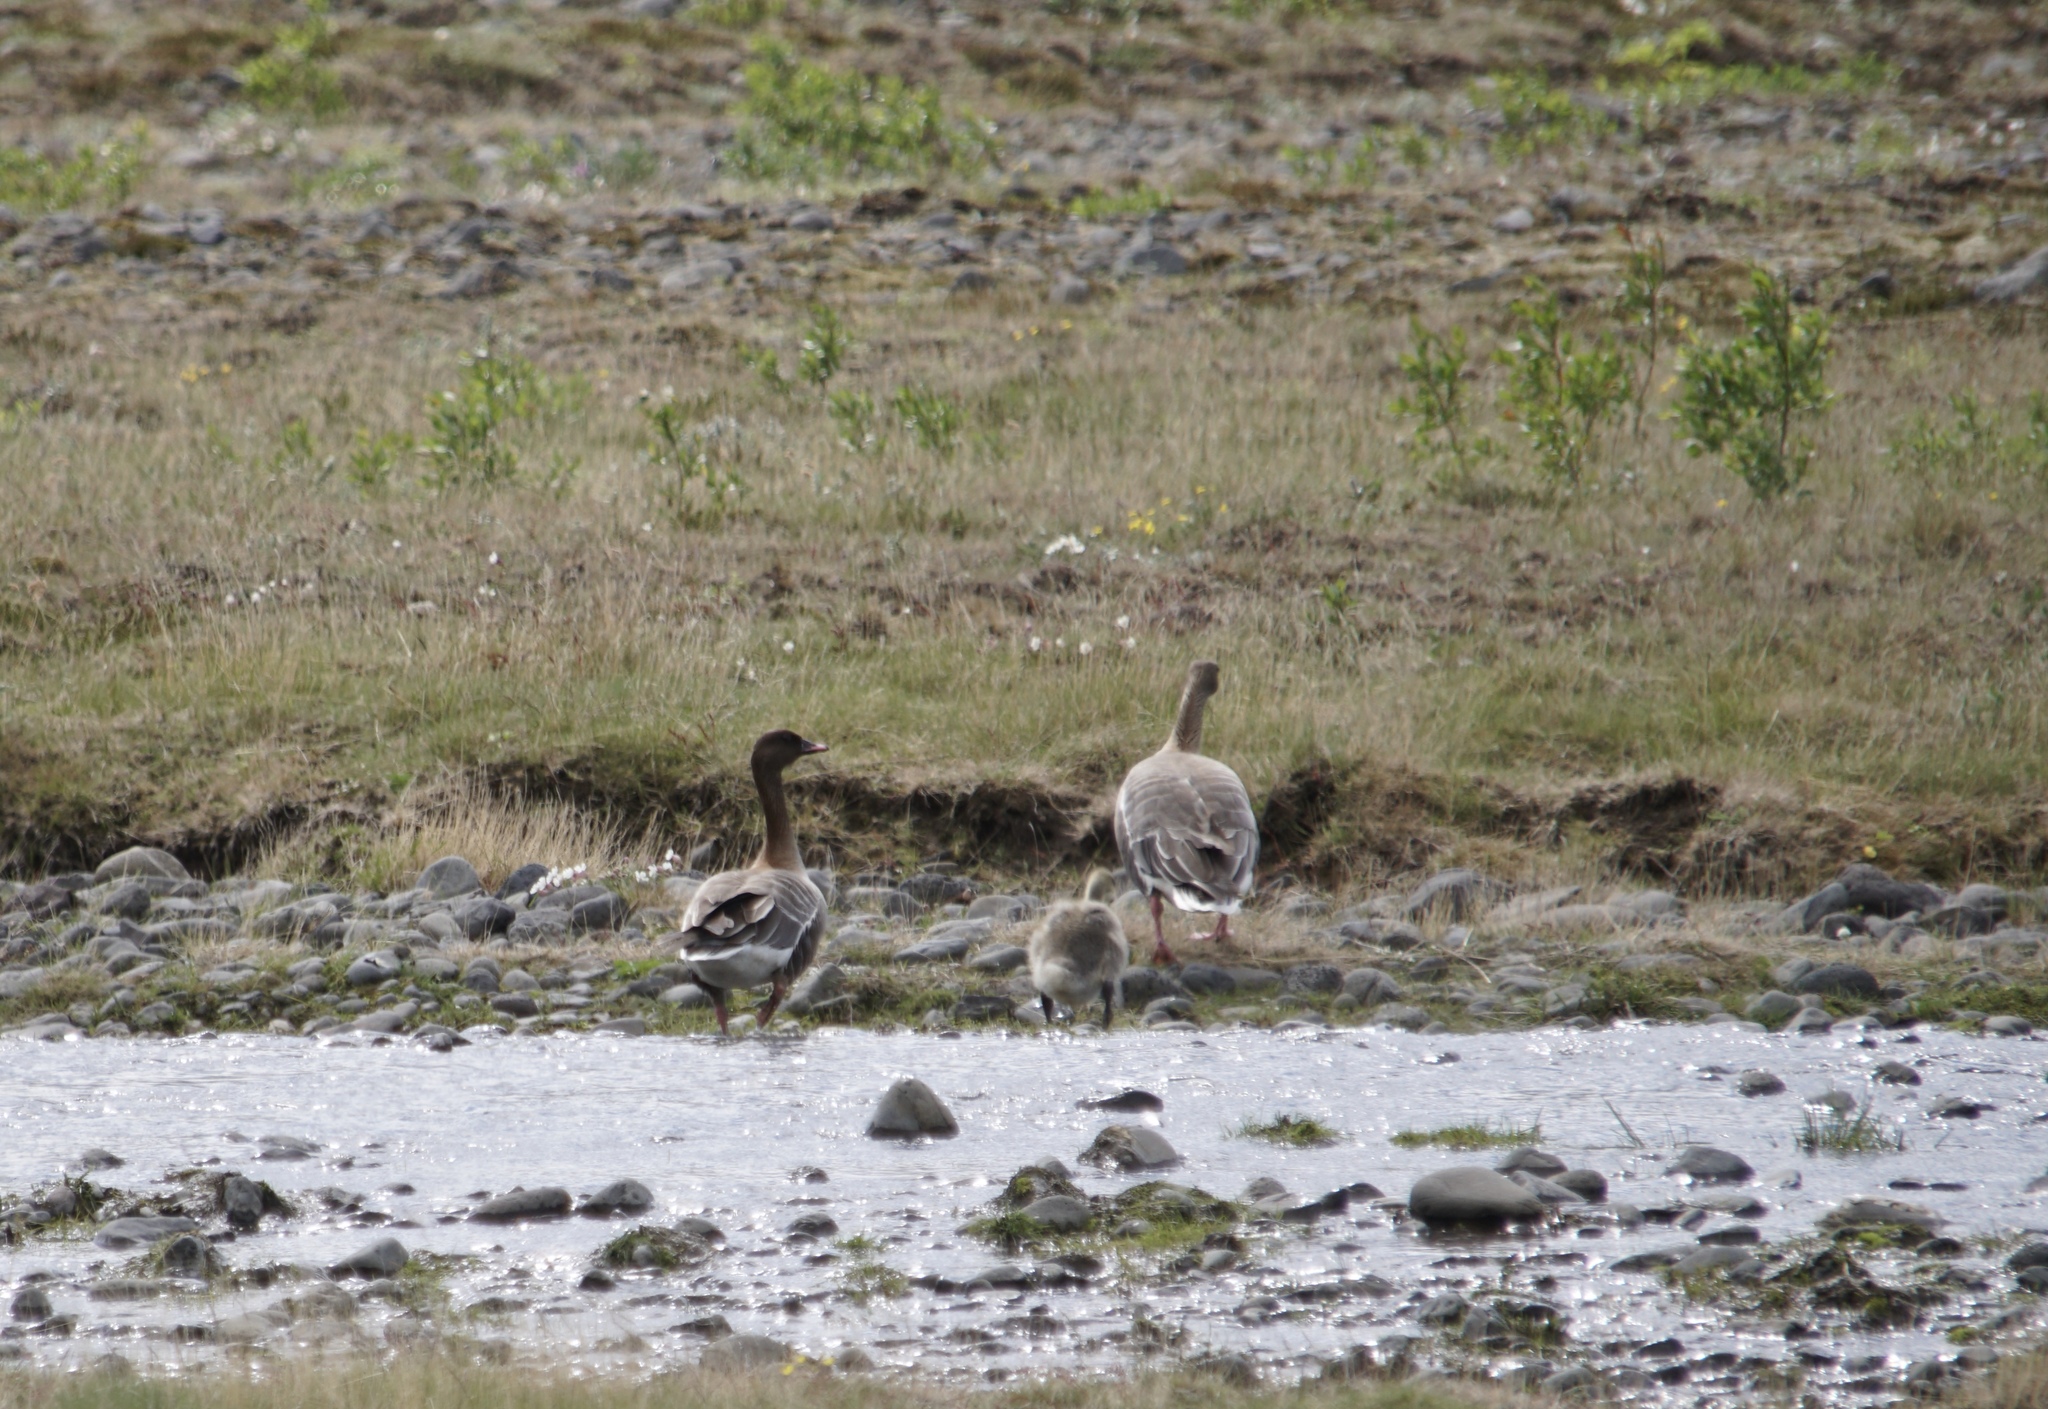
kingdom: Animalia
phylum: Chordata
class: Aves
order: Anseriformes
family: Anatidae
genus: Anser
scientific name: Anser brachyrhynchus
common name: Pink-footed goose
